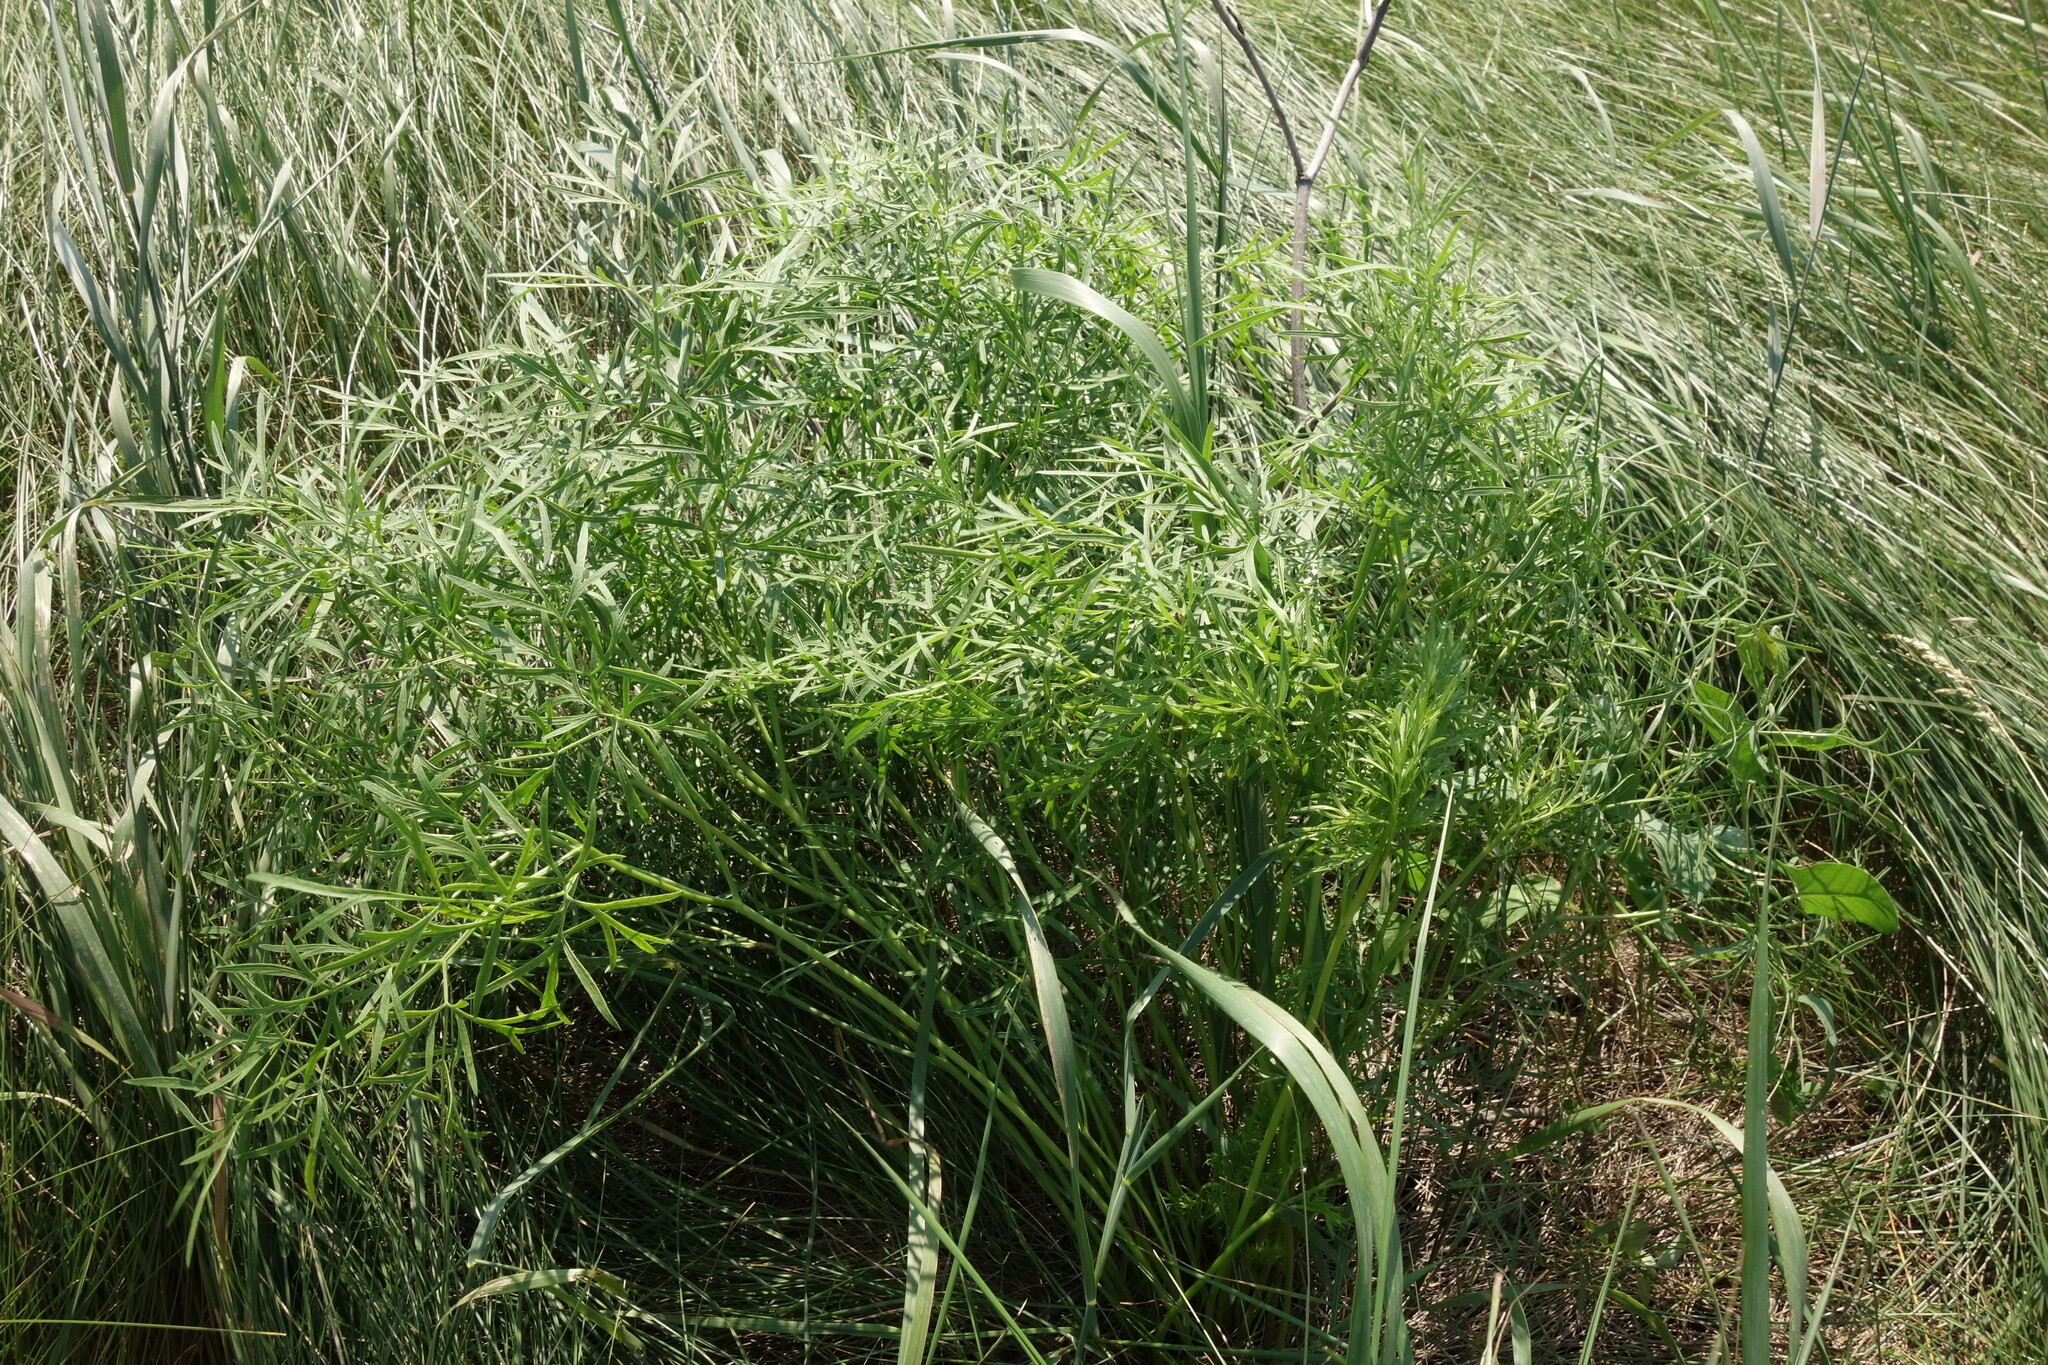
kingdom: Plantae
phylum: Tracheophyta
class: Magnoliopsida
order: Apiales
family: Apiaceae
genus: Silaum
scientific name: Silaum silaus
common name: Pepper-saxifrage
